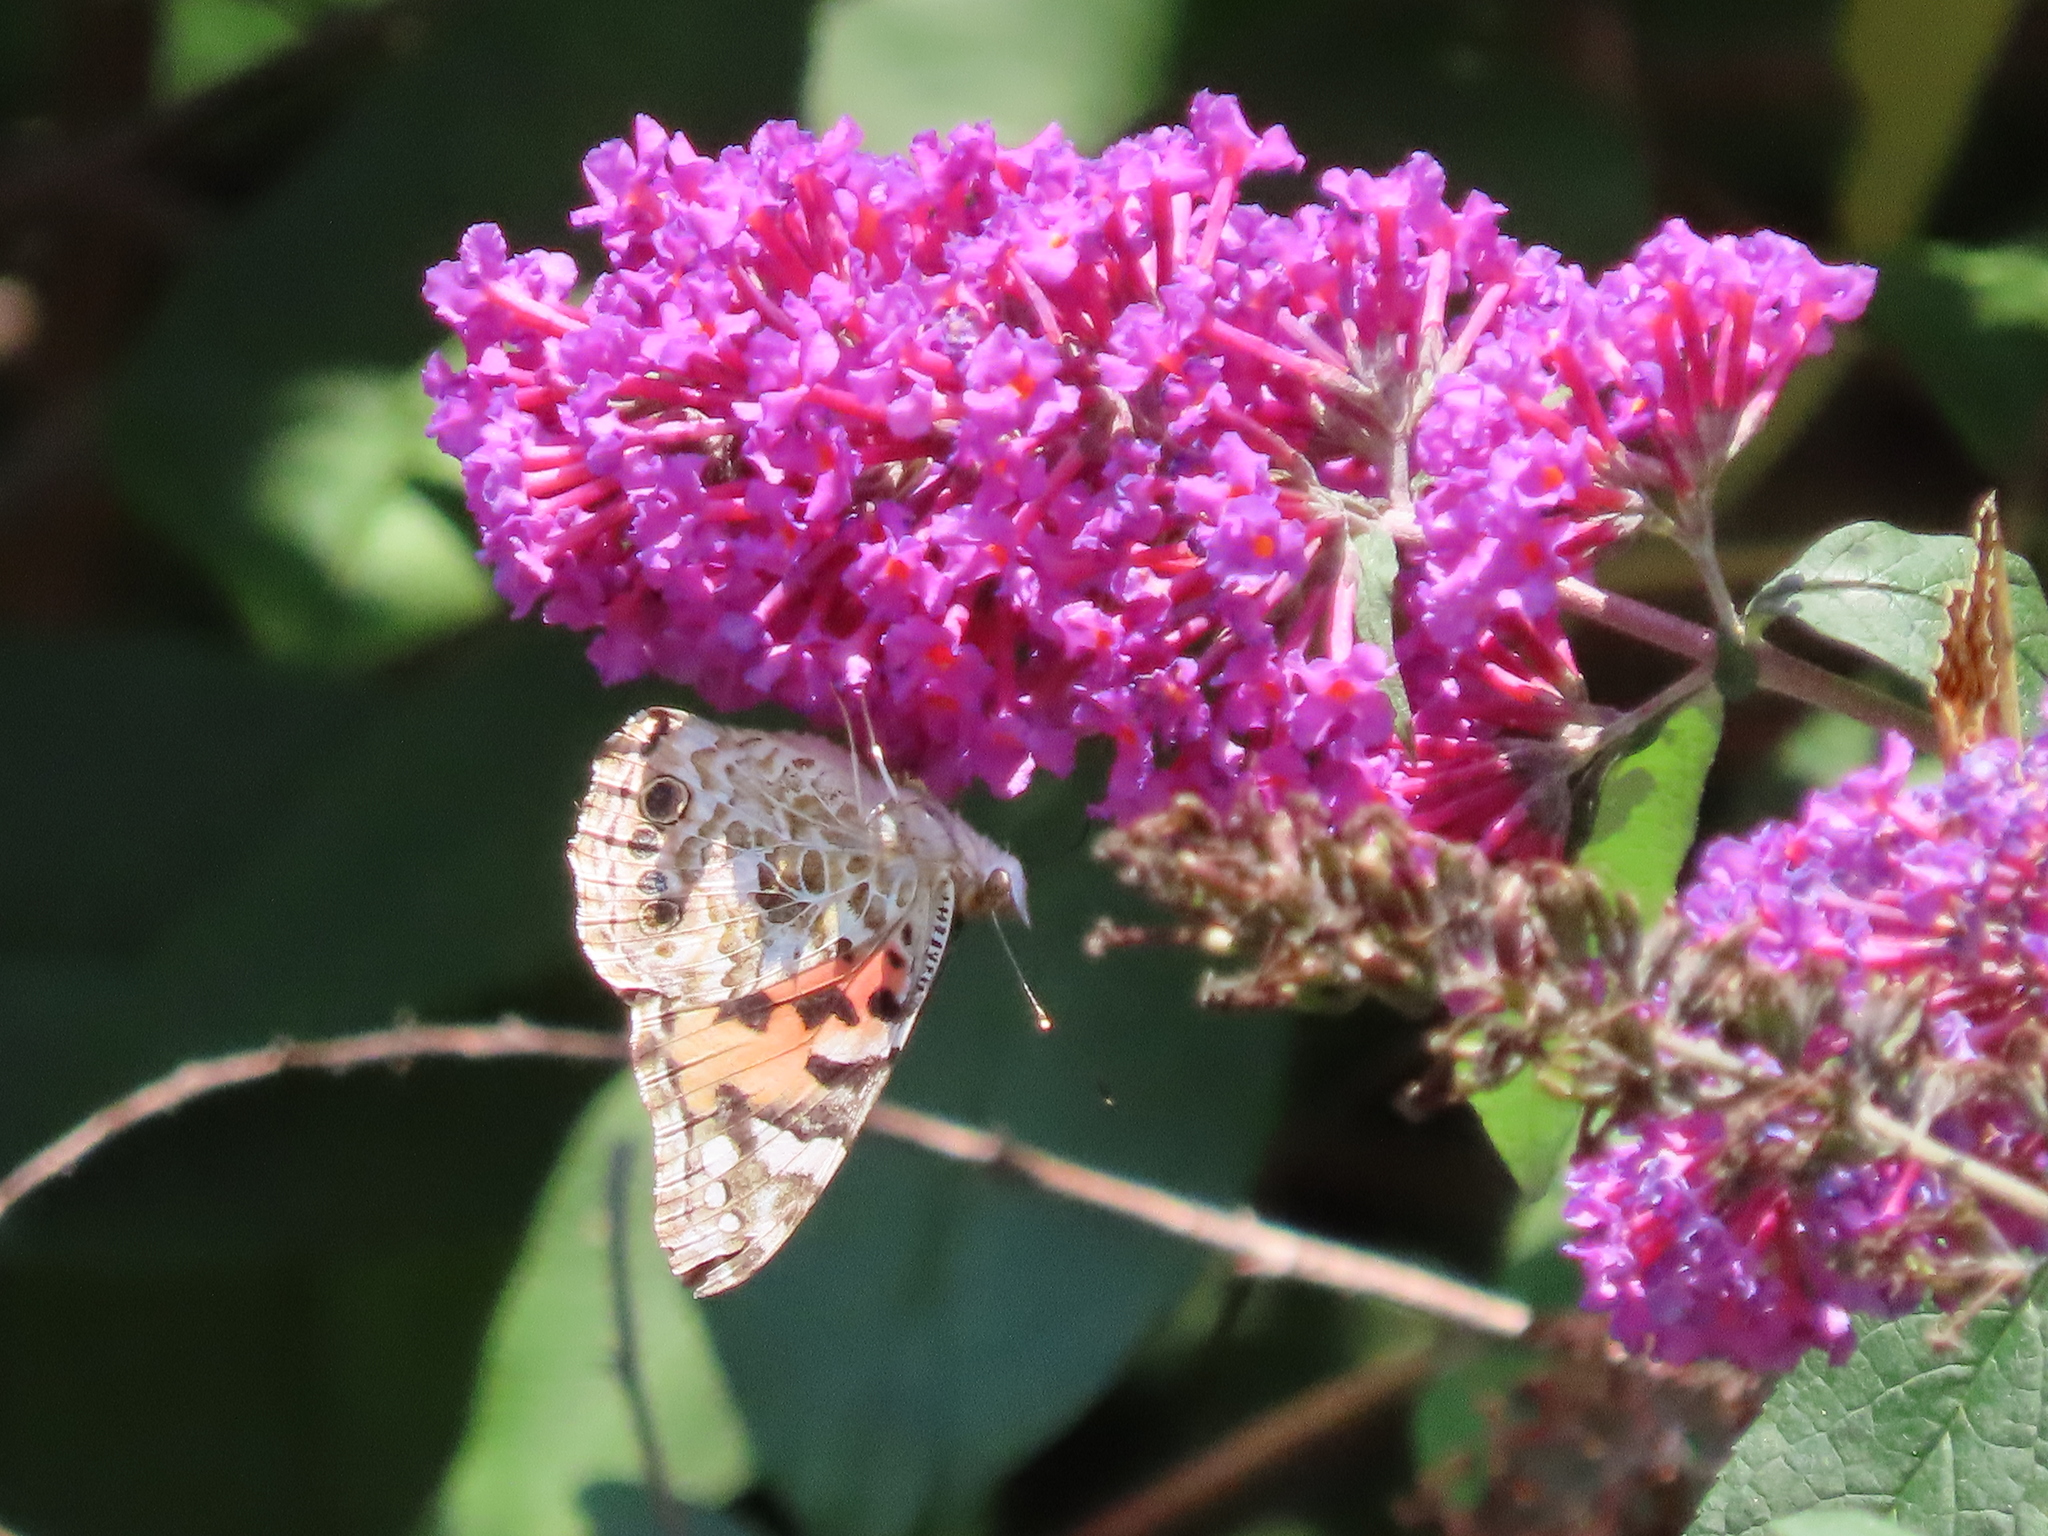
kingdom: Animalia
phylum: Arthropoda
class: Insecta
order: Lepidoptera
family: Nymphalidae
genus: Vanessa
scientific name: Vanessa cardui
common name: Painted lady
